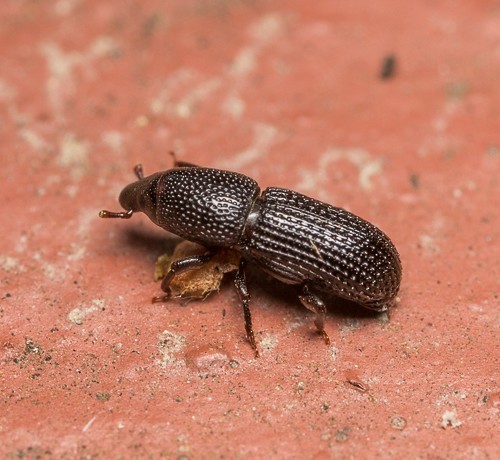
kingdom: Animalia
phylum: Arthropoda
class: Insecta
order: Coleoptera
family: Curculionidae
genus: Tomolips
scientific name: Tomolips quercicola
